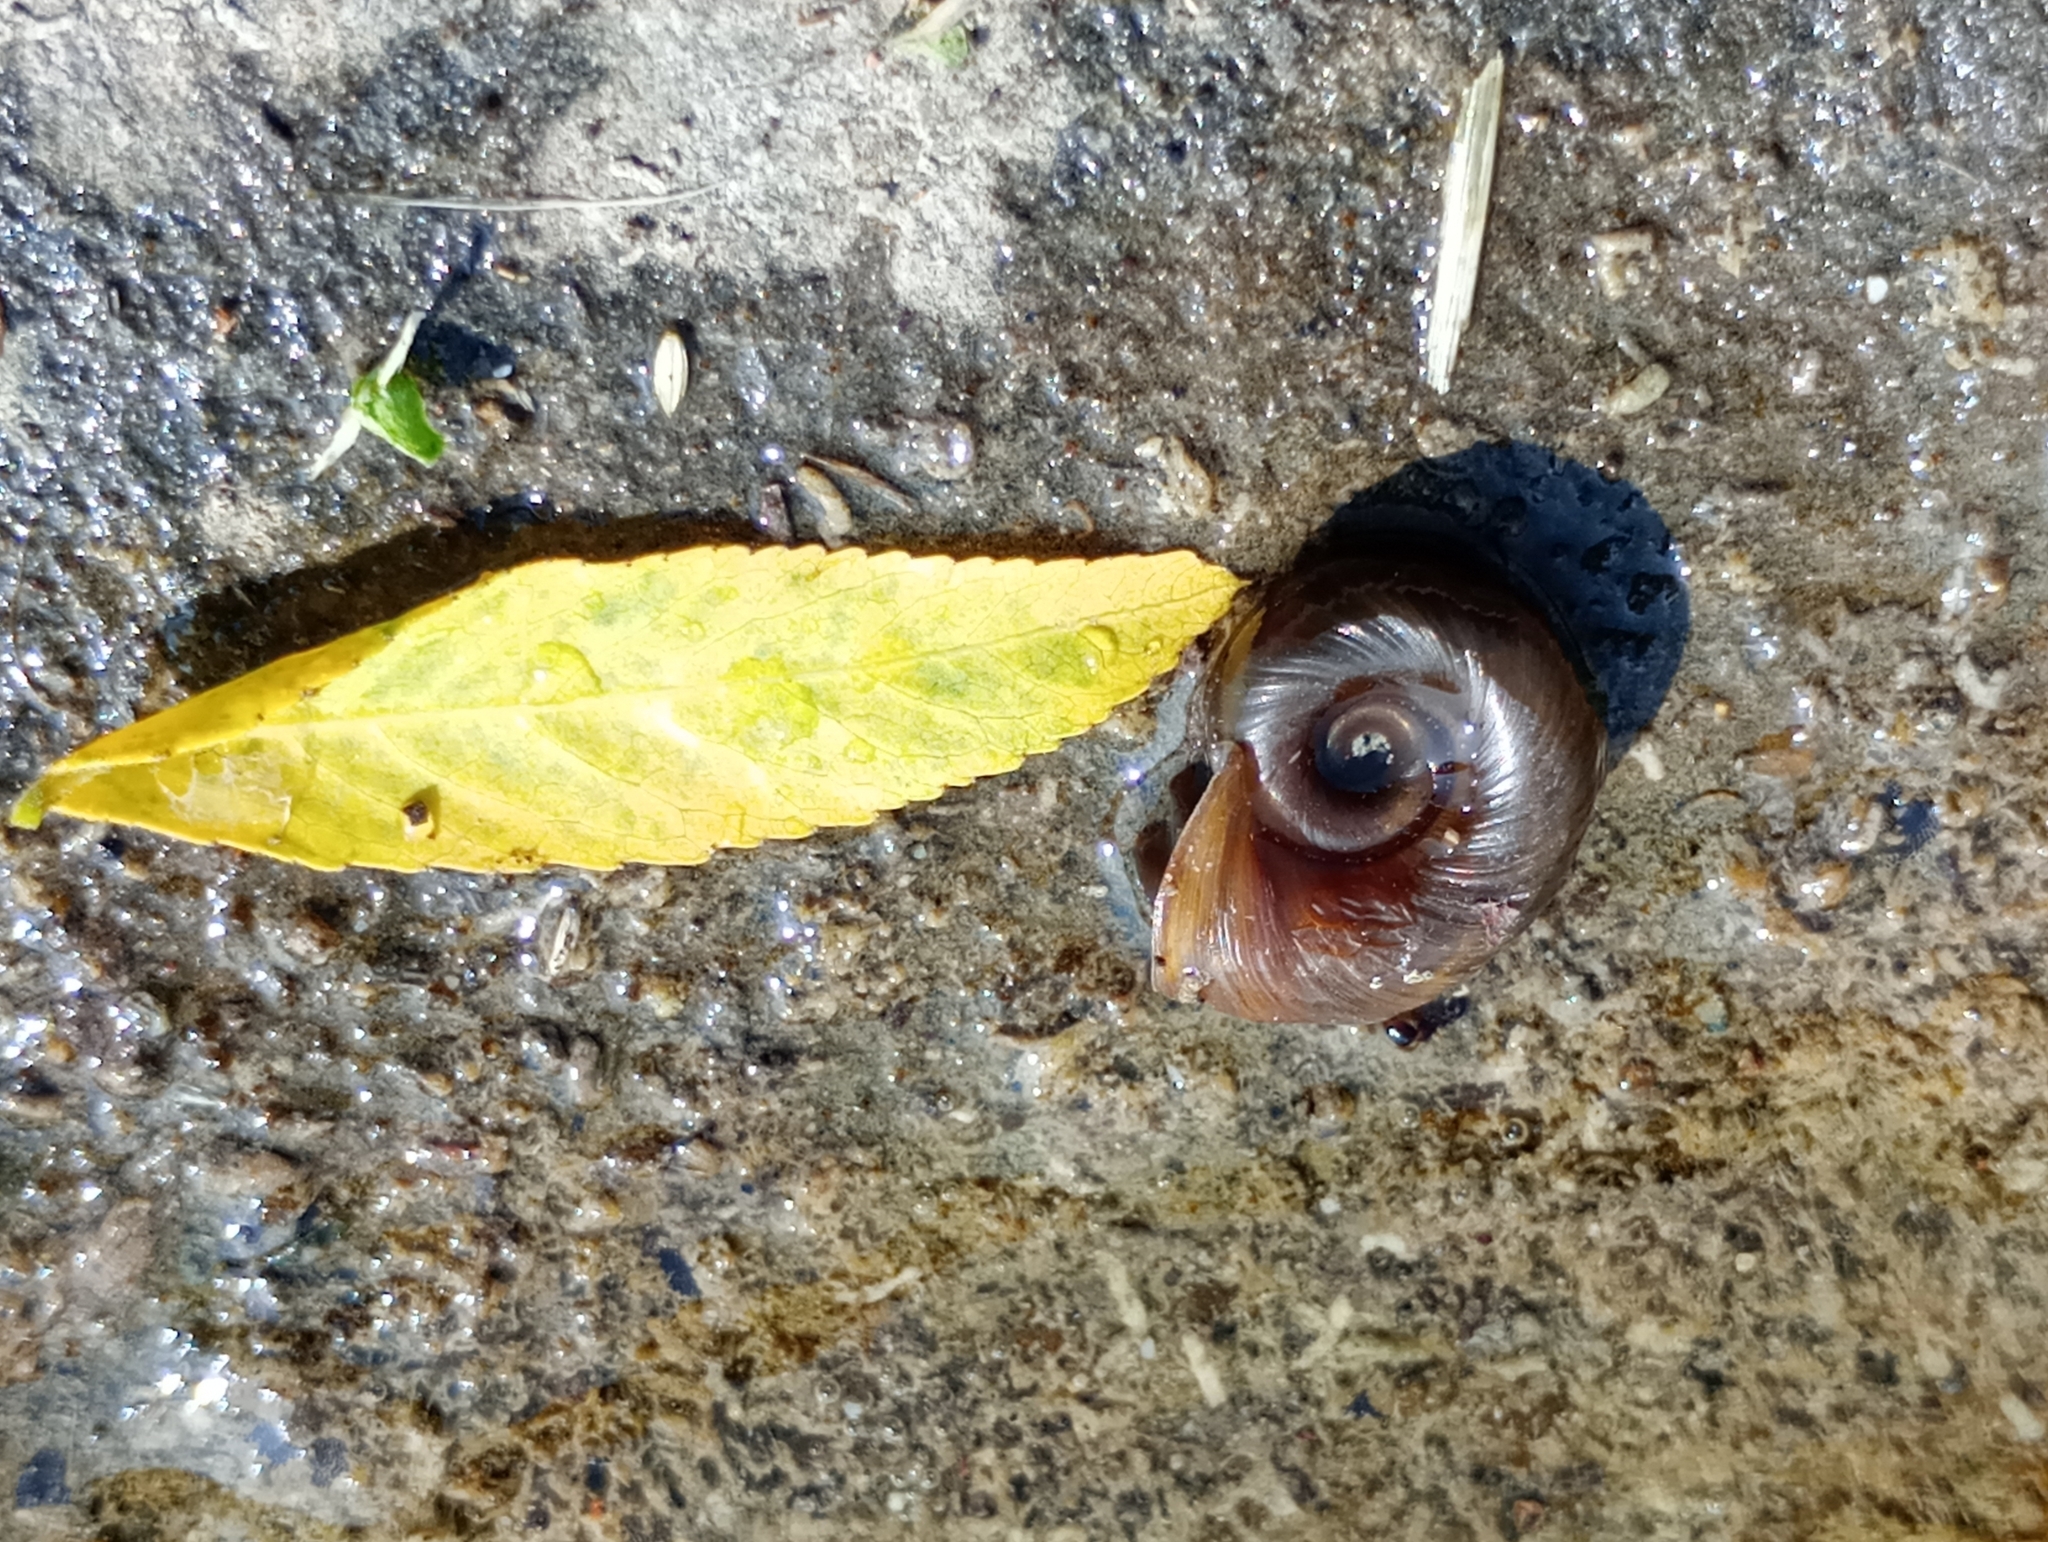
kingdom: Animalia
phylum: Mollusca
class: Gastropoda
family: Planorbidae
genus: Planorbarius
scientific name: Planorbarius corneus
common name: Great ramshorn
